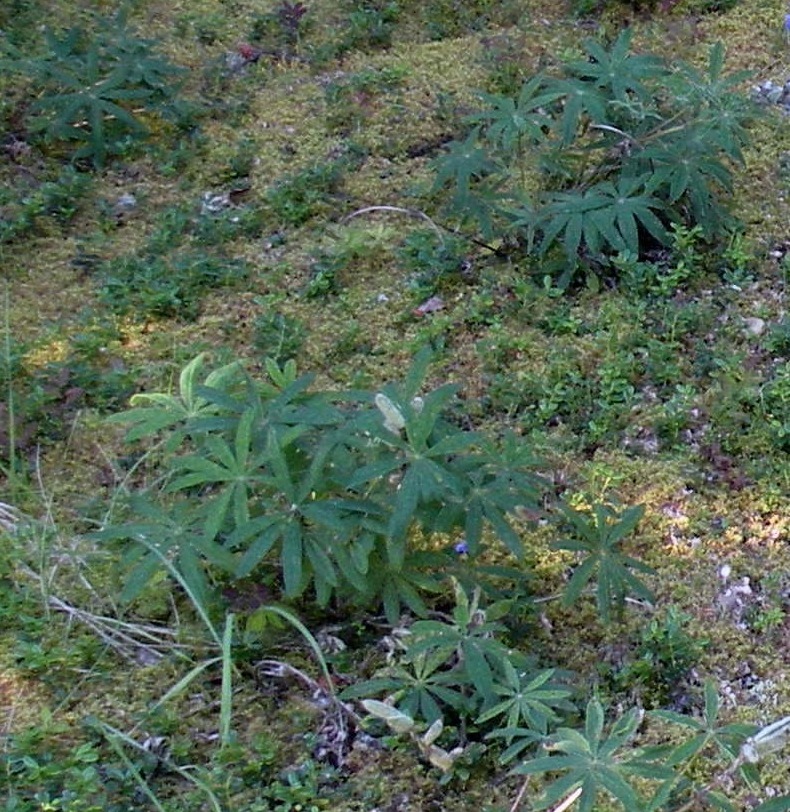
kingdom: Plantae
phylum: Tracheophyta
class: Magnoliopsida
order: Fabales
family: Fabaceae
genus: Lupinus
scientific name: Lupinus polyphyllus
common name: Garden lupin
